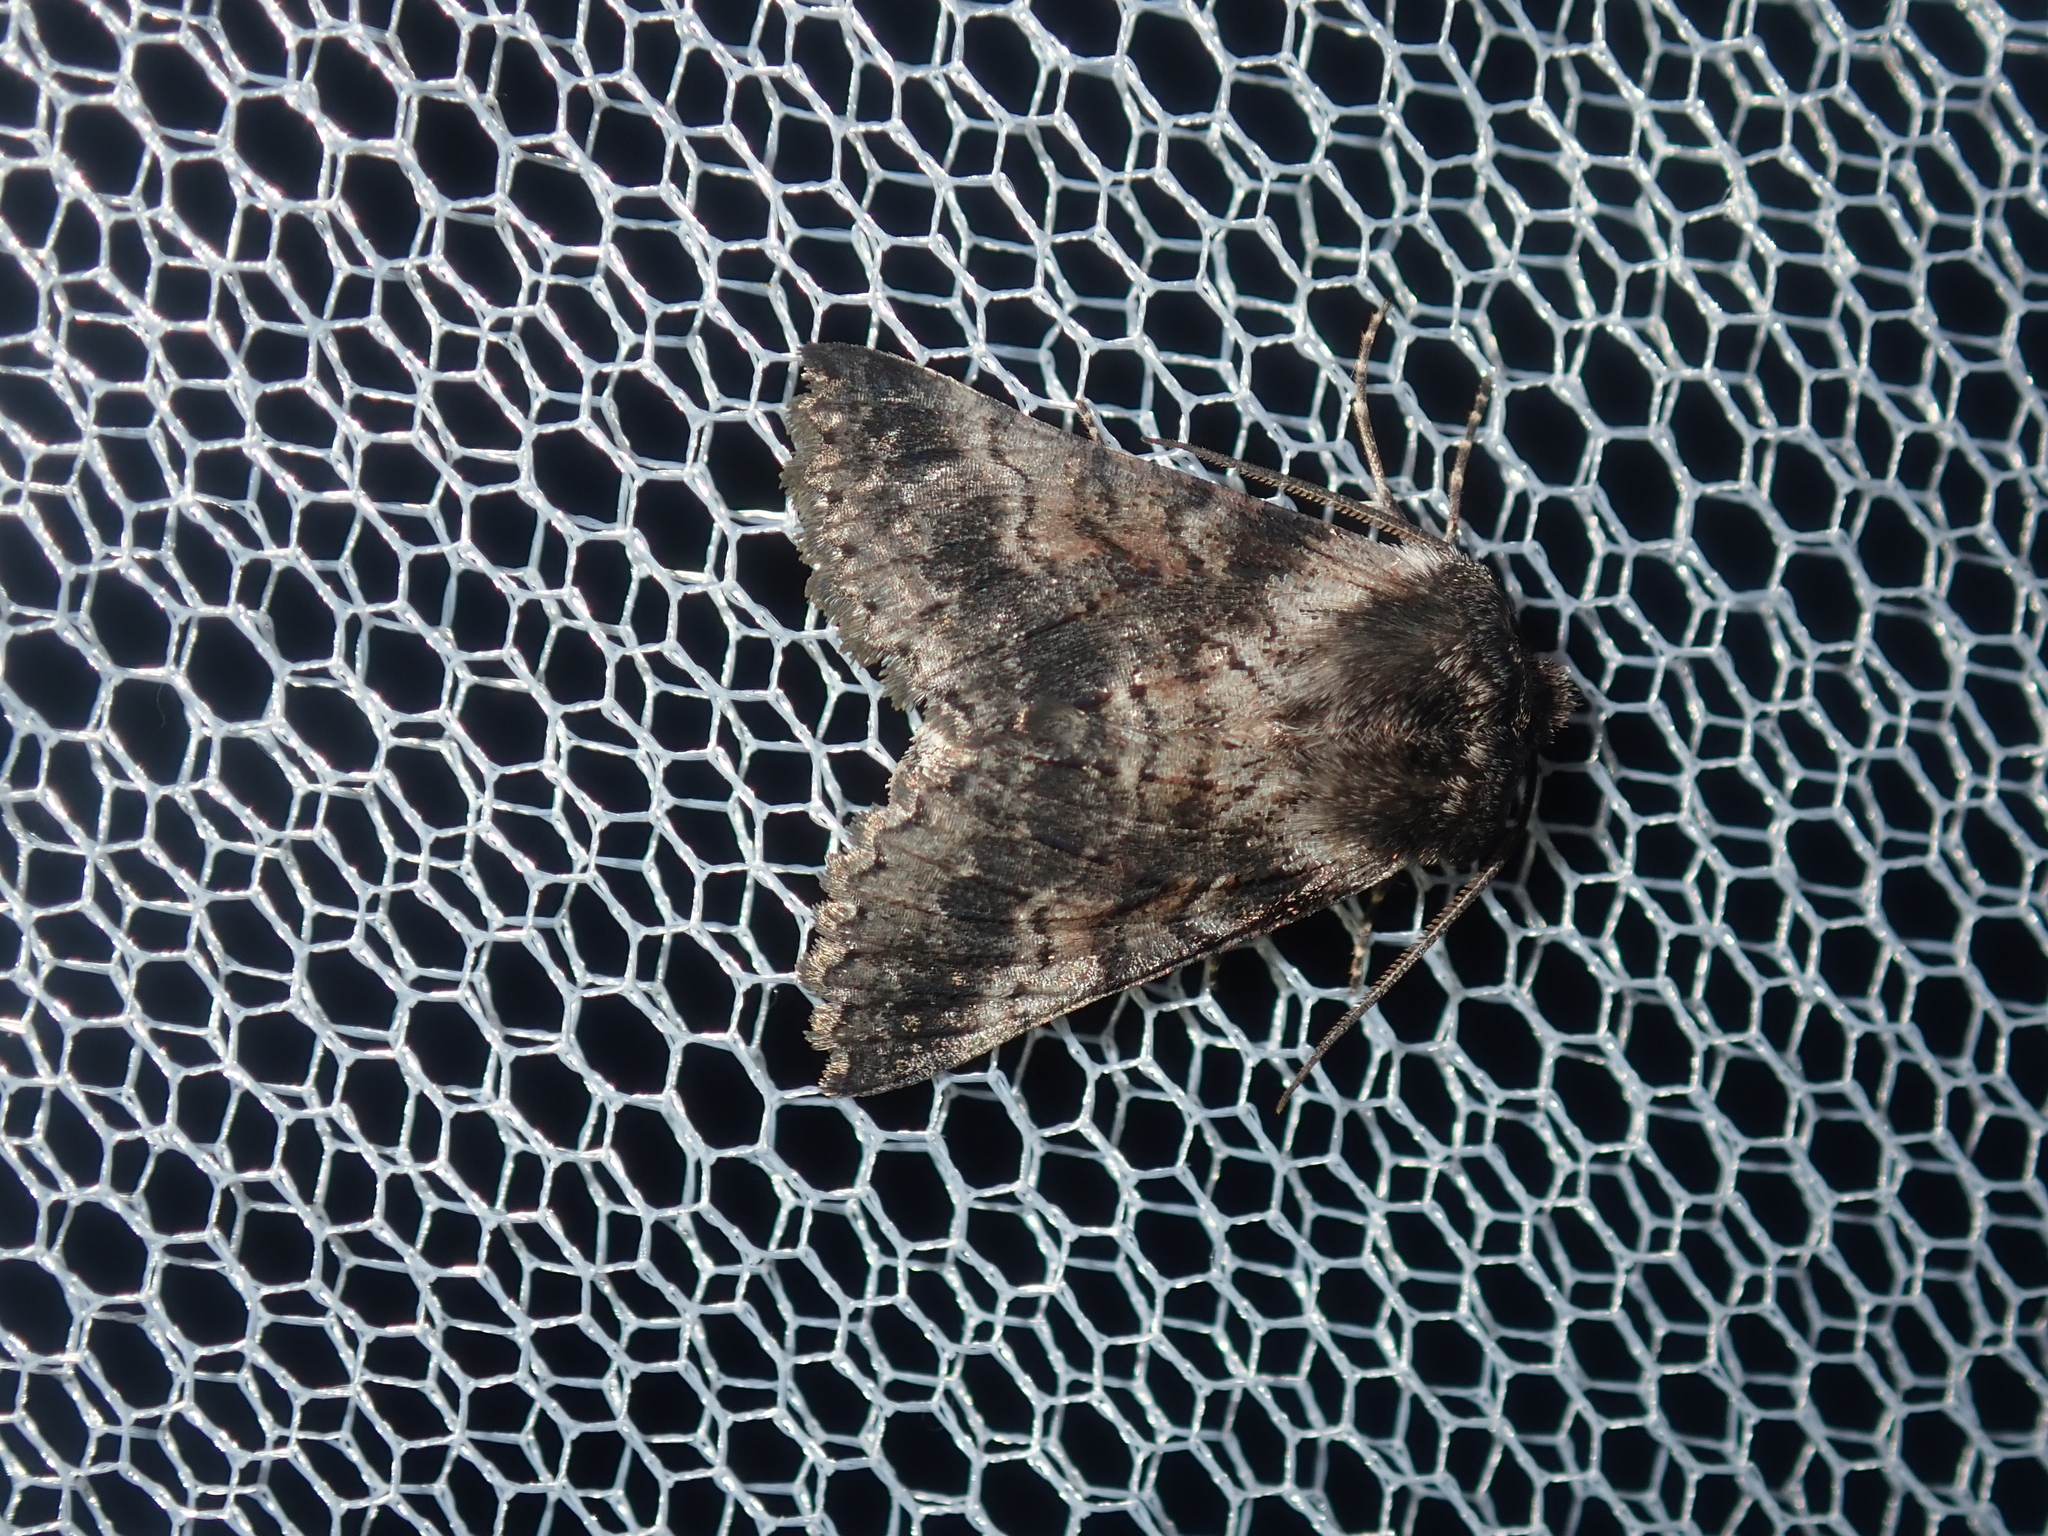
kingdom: Animalia
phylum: Arthropoda
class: Insecta
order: Lepidoptera
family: Geometridae
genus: Dinophalus
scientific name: Dinophalus ampycteria
